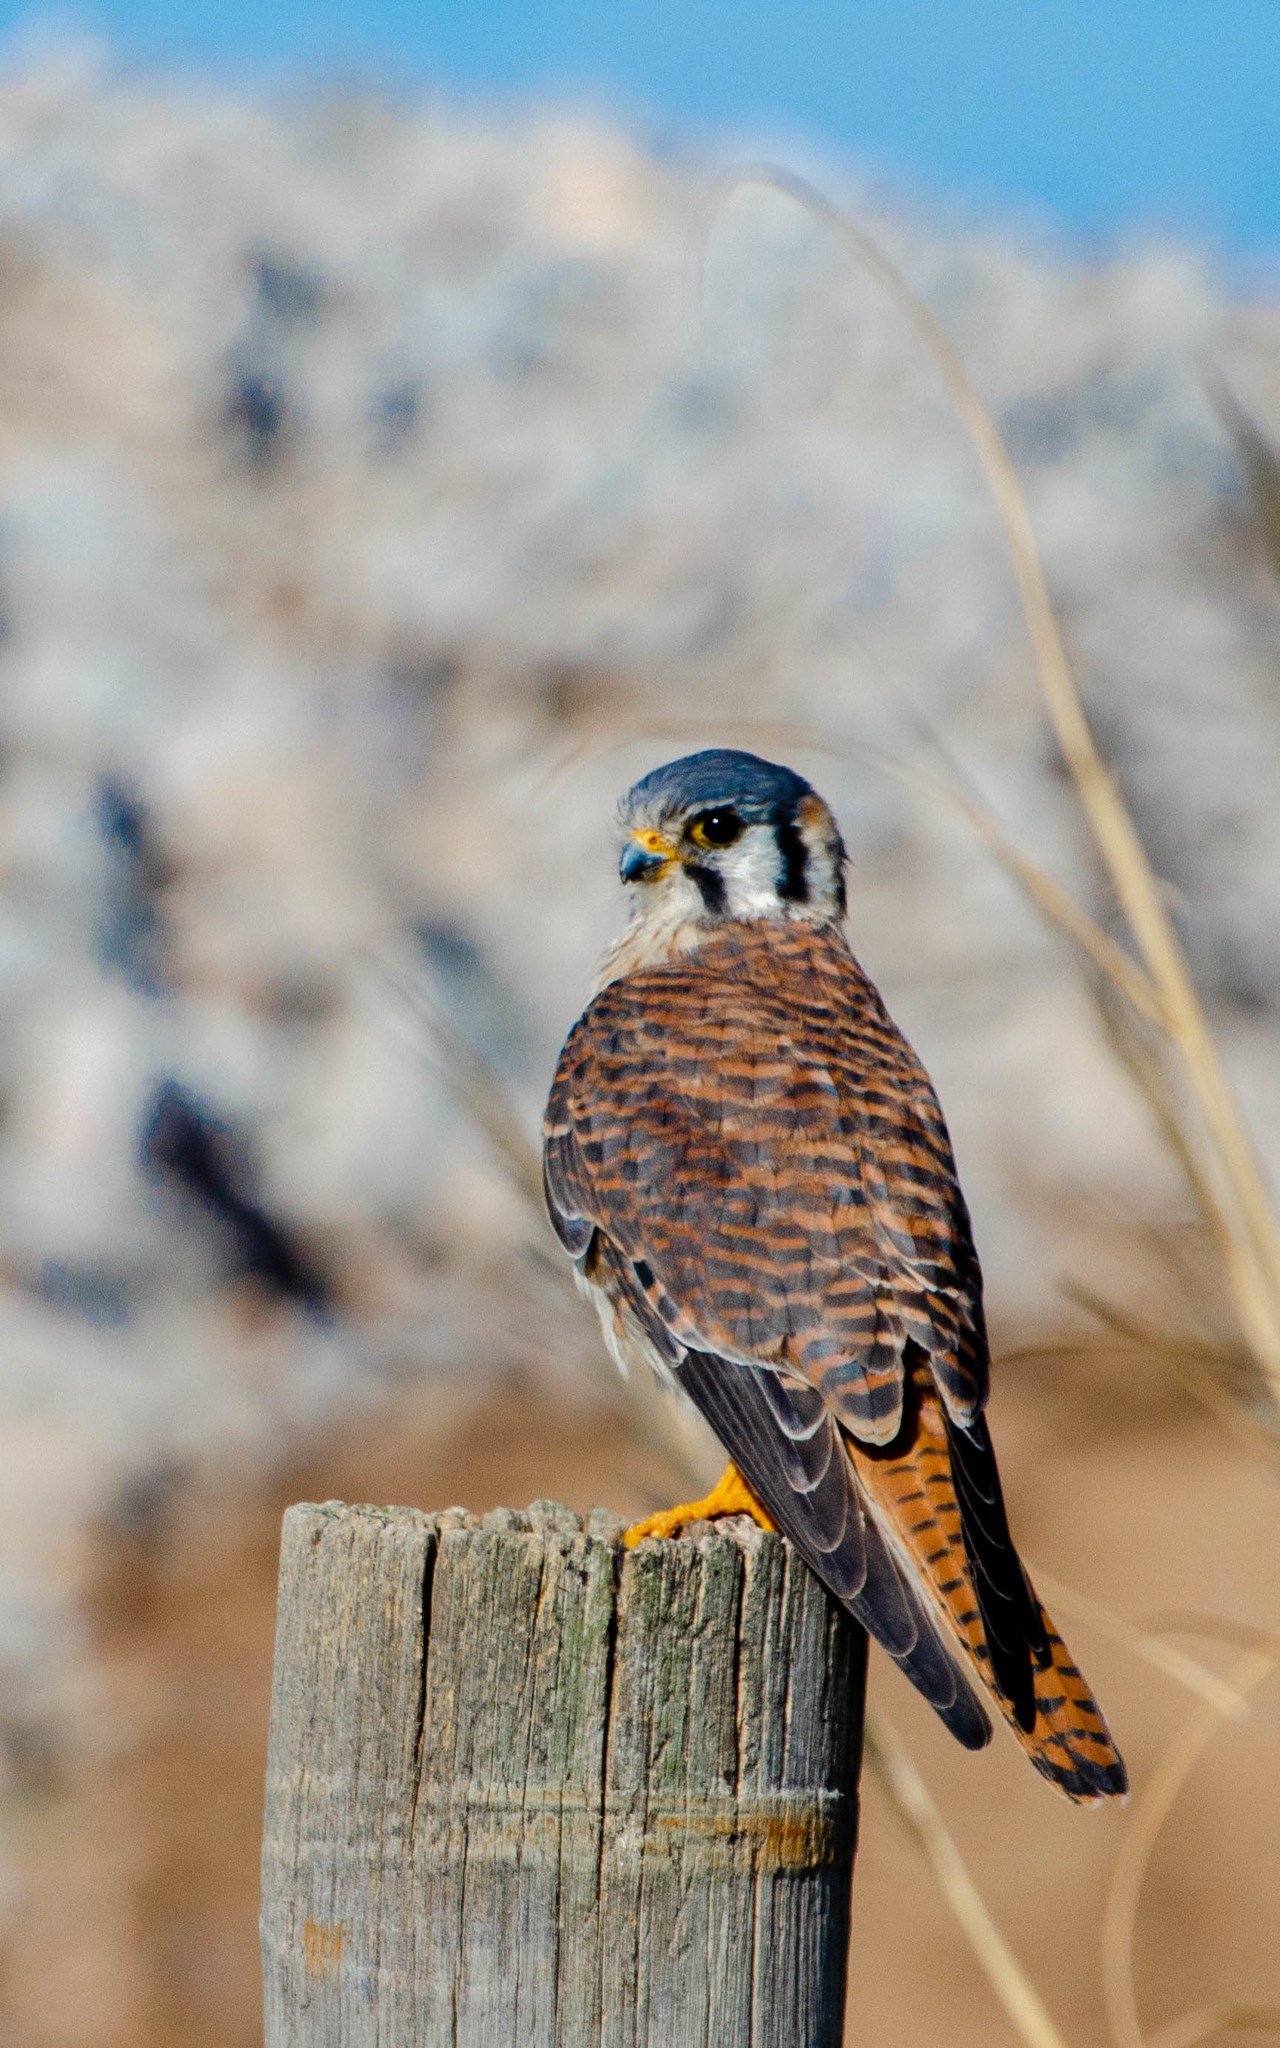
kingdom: Animalia
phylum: Chordata
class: Aves
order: Falconiformes
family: Falconidae
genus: Falco
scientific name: Falco sparverius
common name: American kestrel
